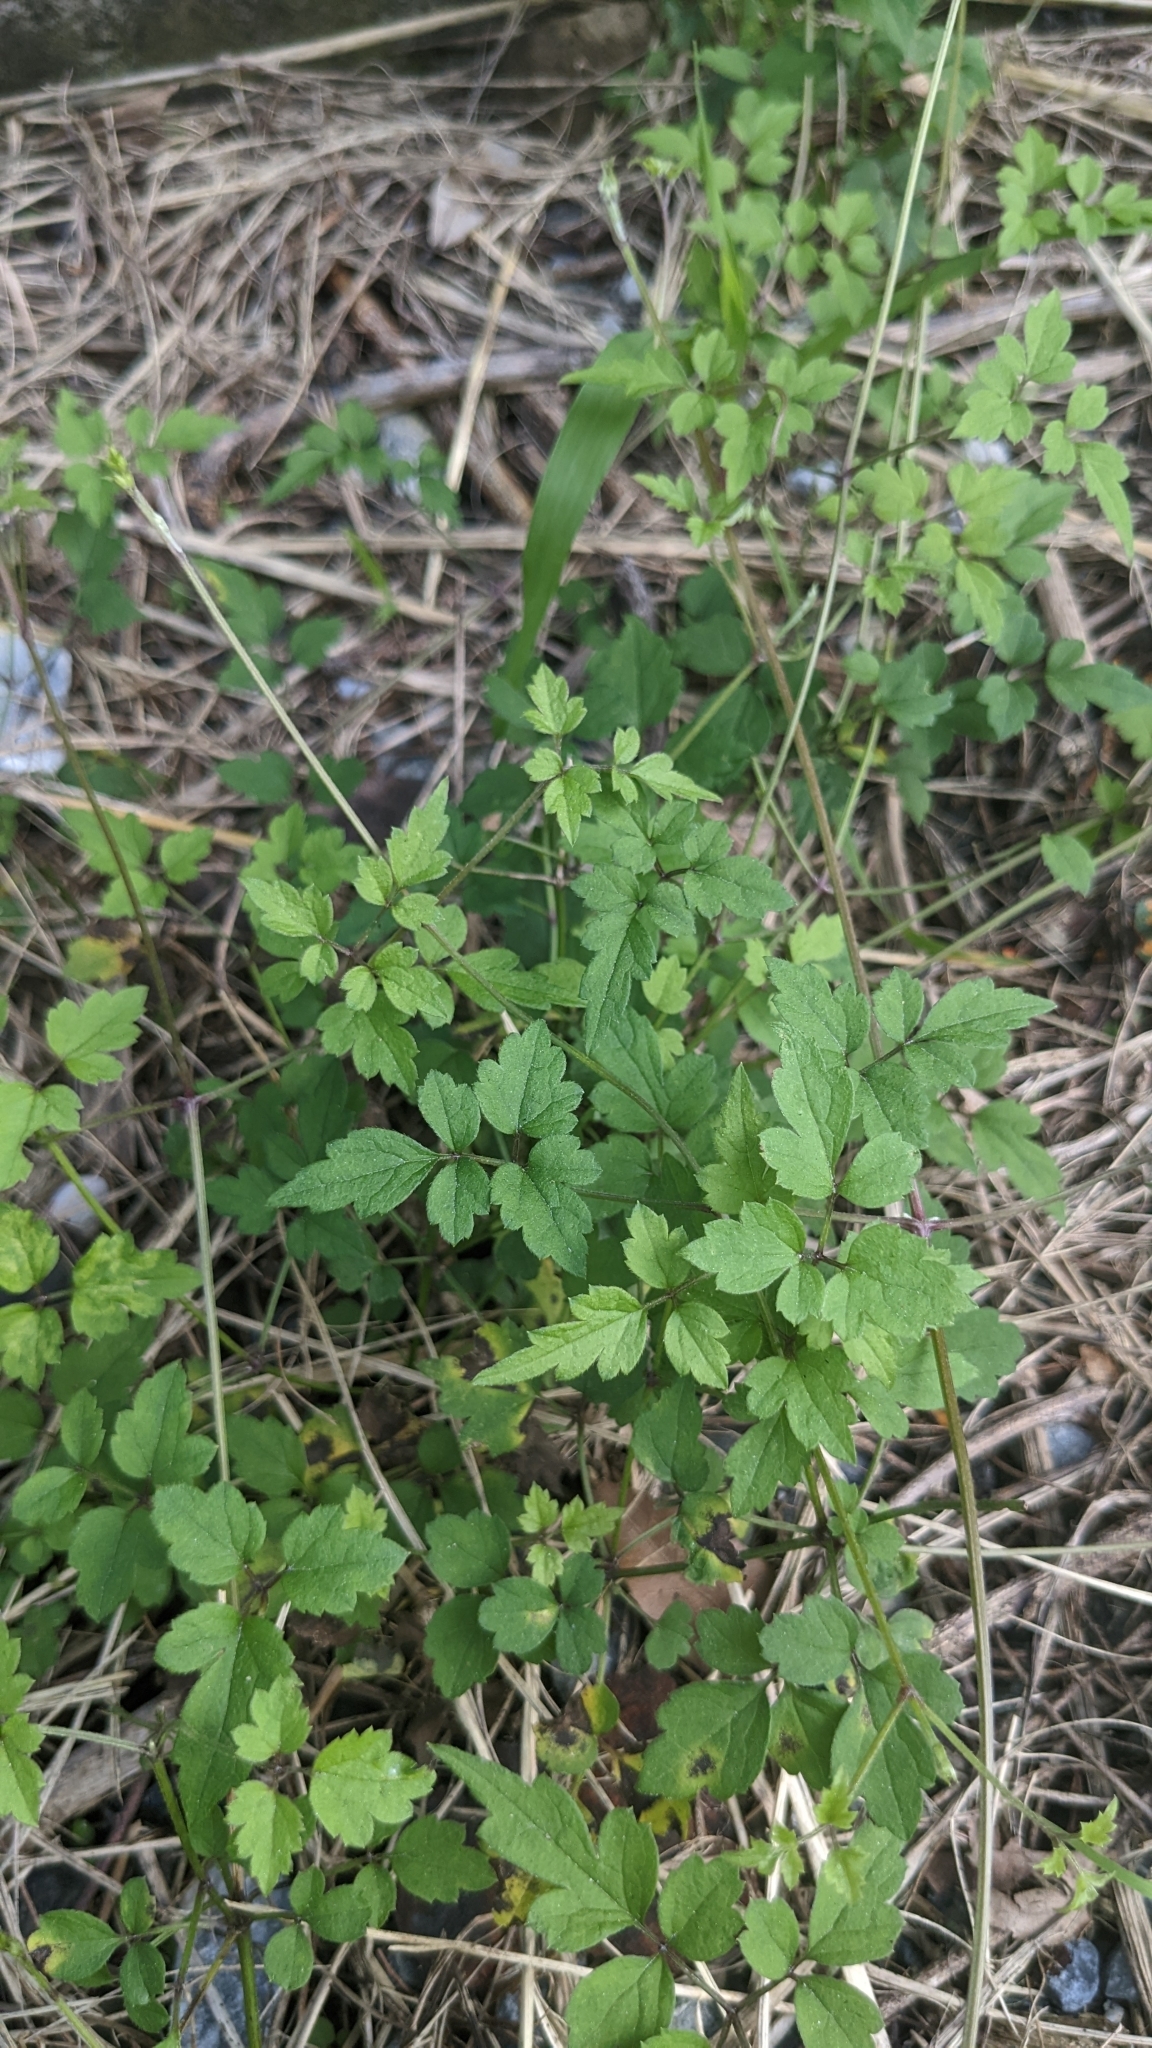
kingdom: Plantae
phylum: Tracheophyta
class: Magnoliopsida
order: Ranunculales
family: Ranunculaceae
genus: Clematis
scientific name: Clematis grata
